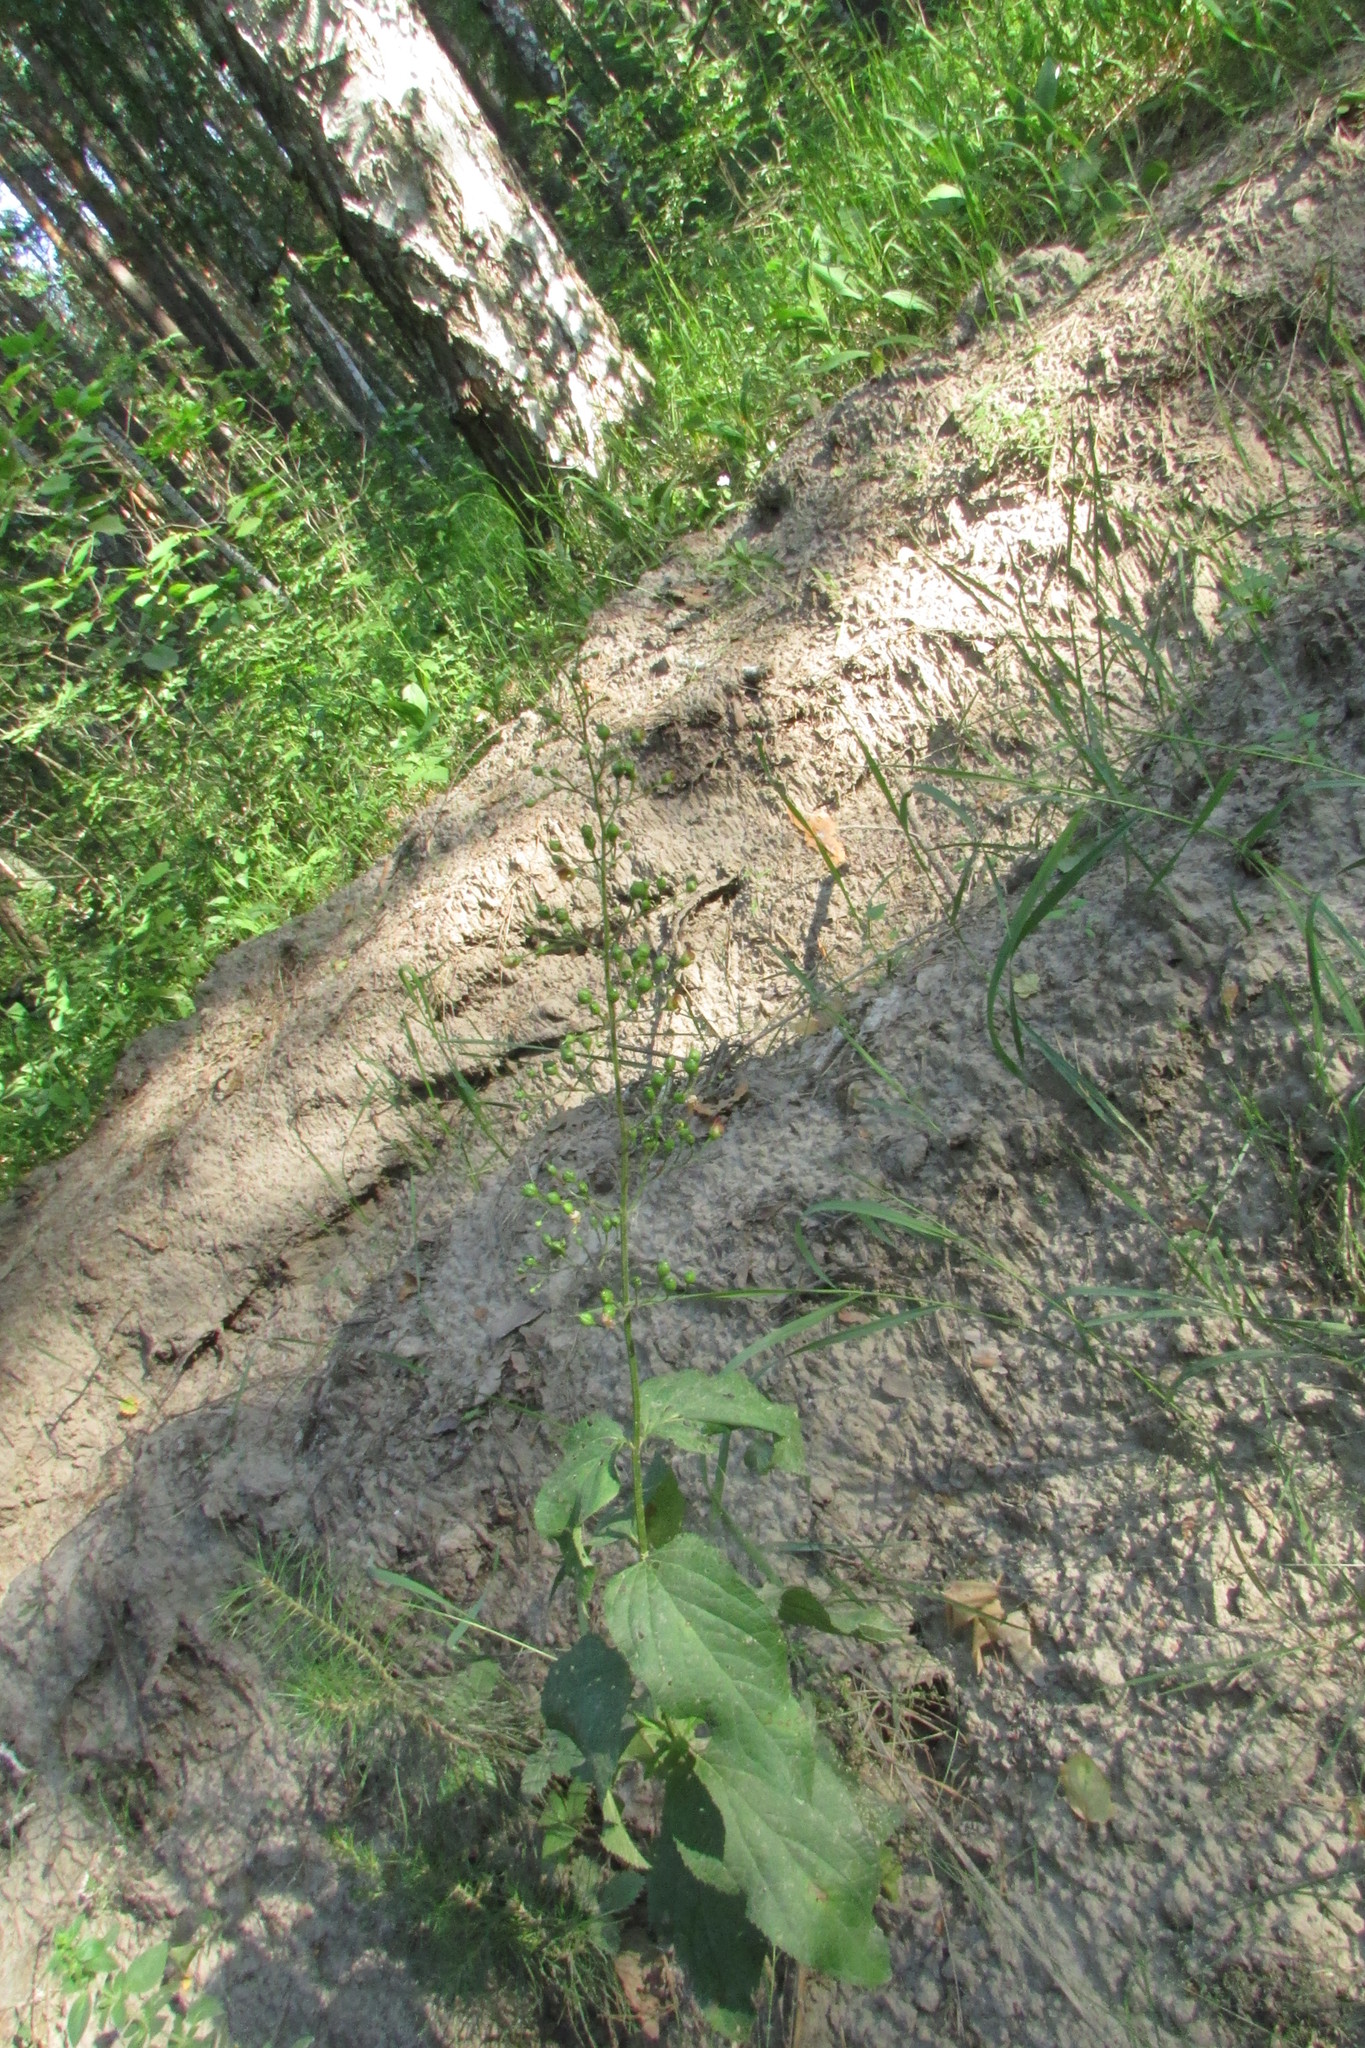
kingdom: Plantae
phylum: Tracheophyta
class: Magnoliopsida
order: Lamiales
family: Scrophulariaceae
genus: Scrophularia
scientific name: Scrophularia nodosa
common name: Common figwort
